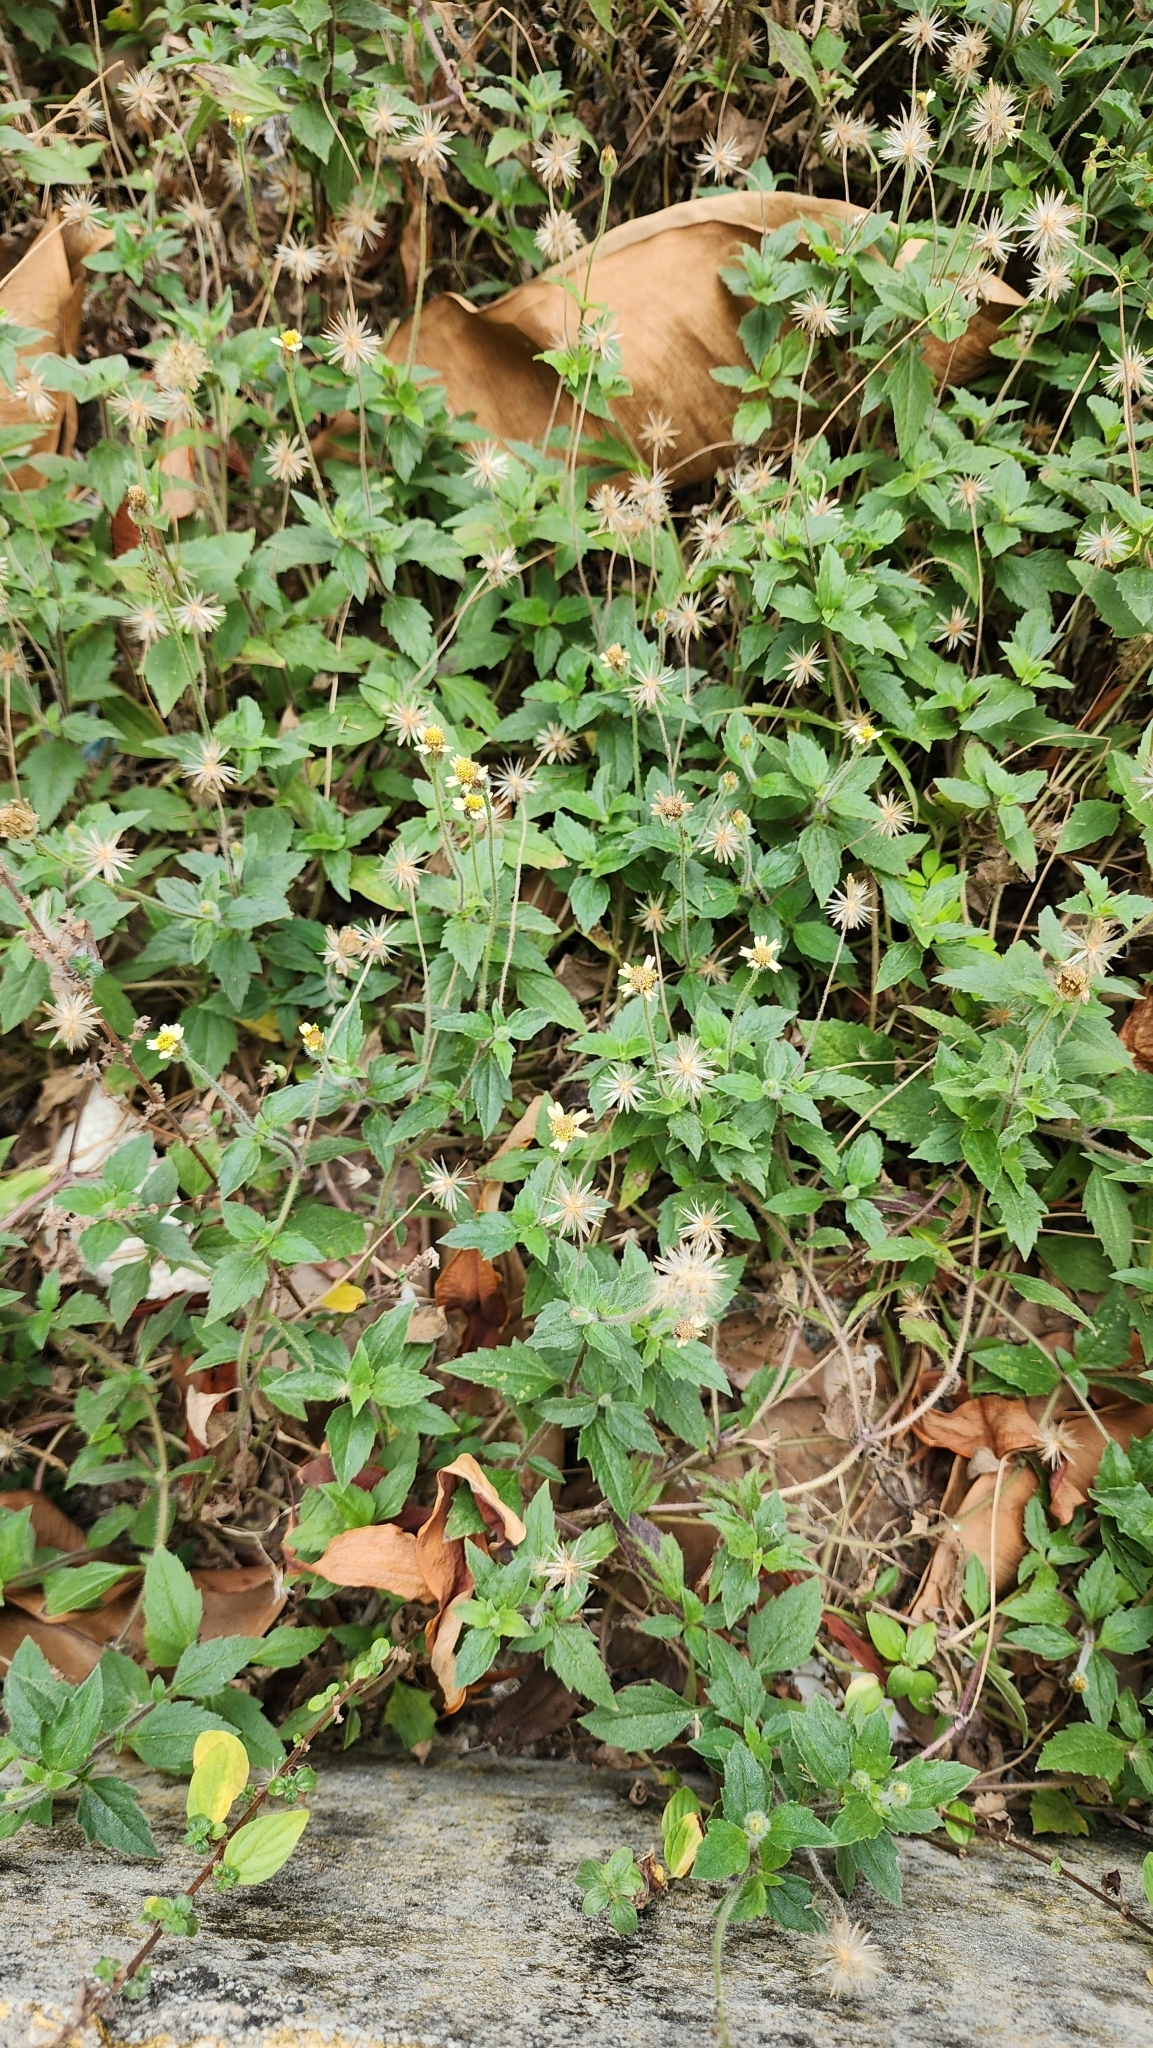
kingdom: Plantae
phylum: Tracheophyta
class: Magnoliopsida
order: Asterales
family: Asteraceae
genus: Tridax
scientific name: Tridax procumbens
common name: Coatbuttons
